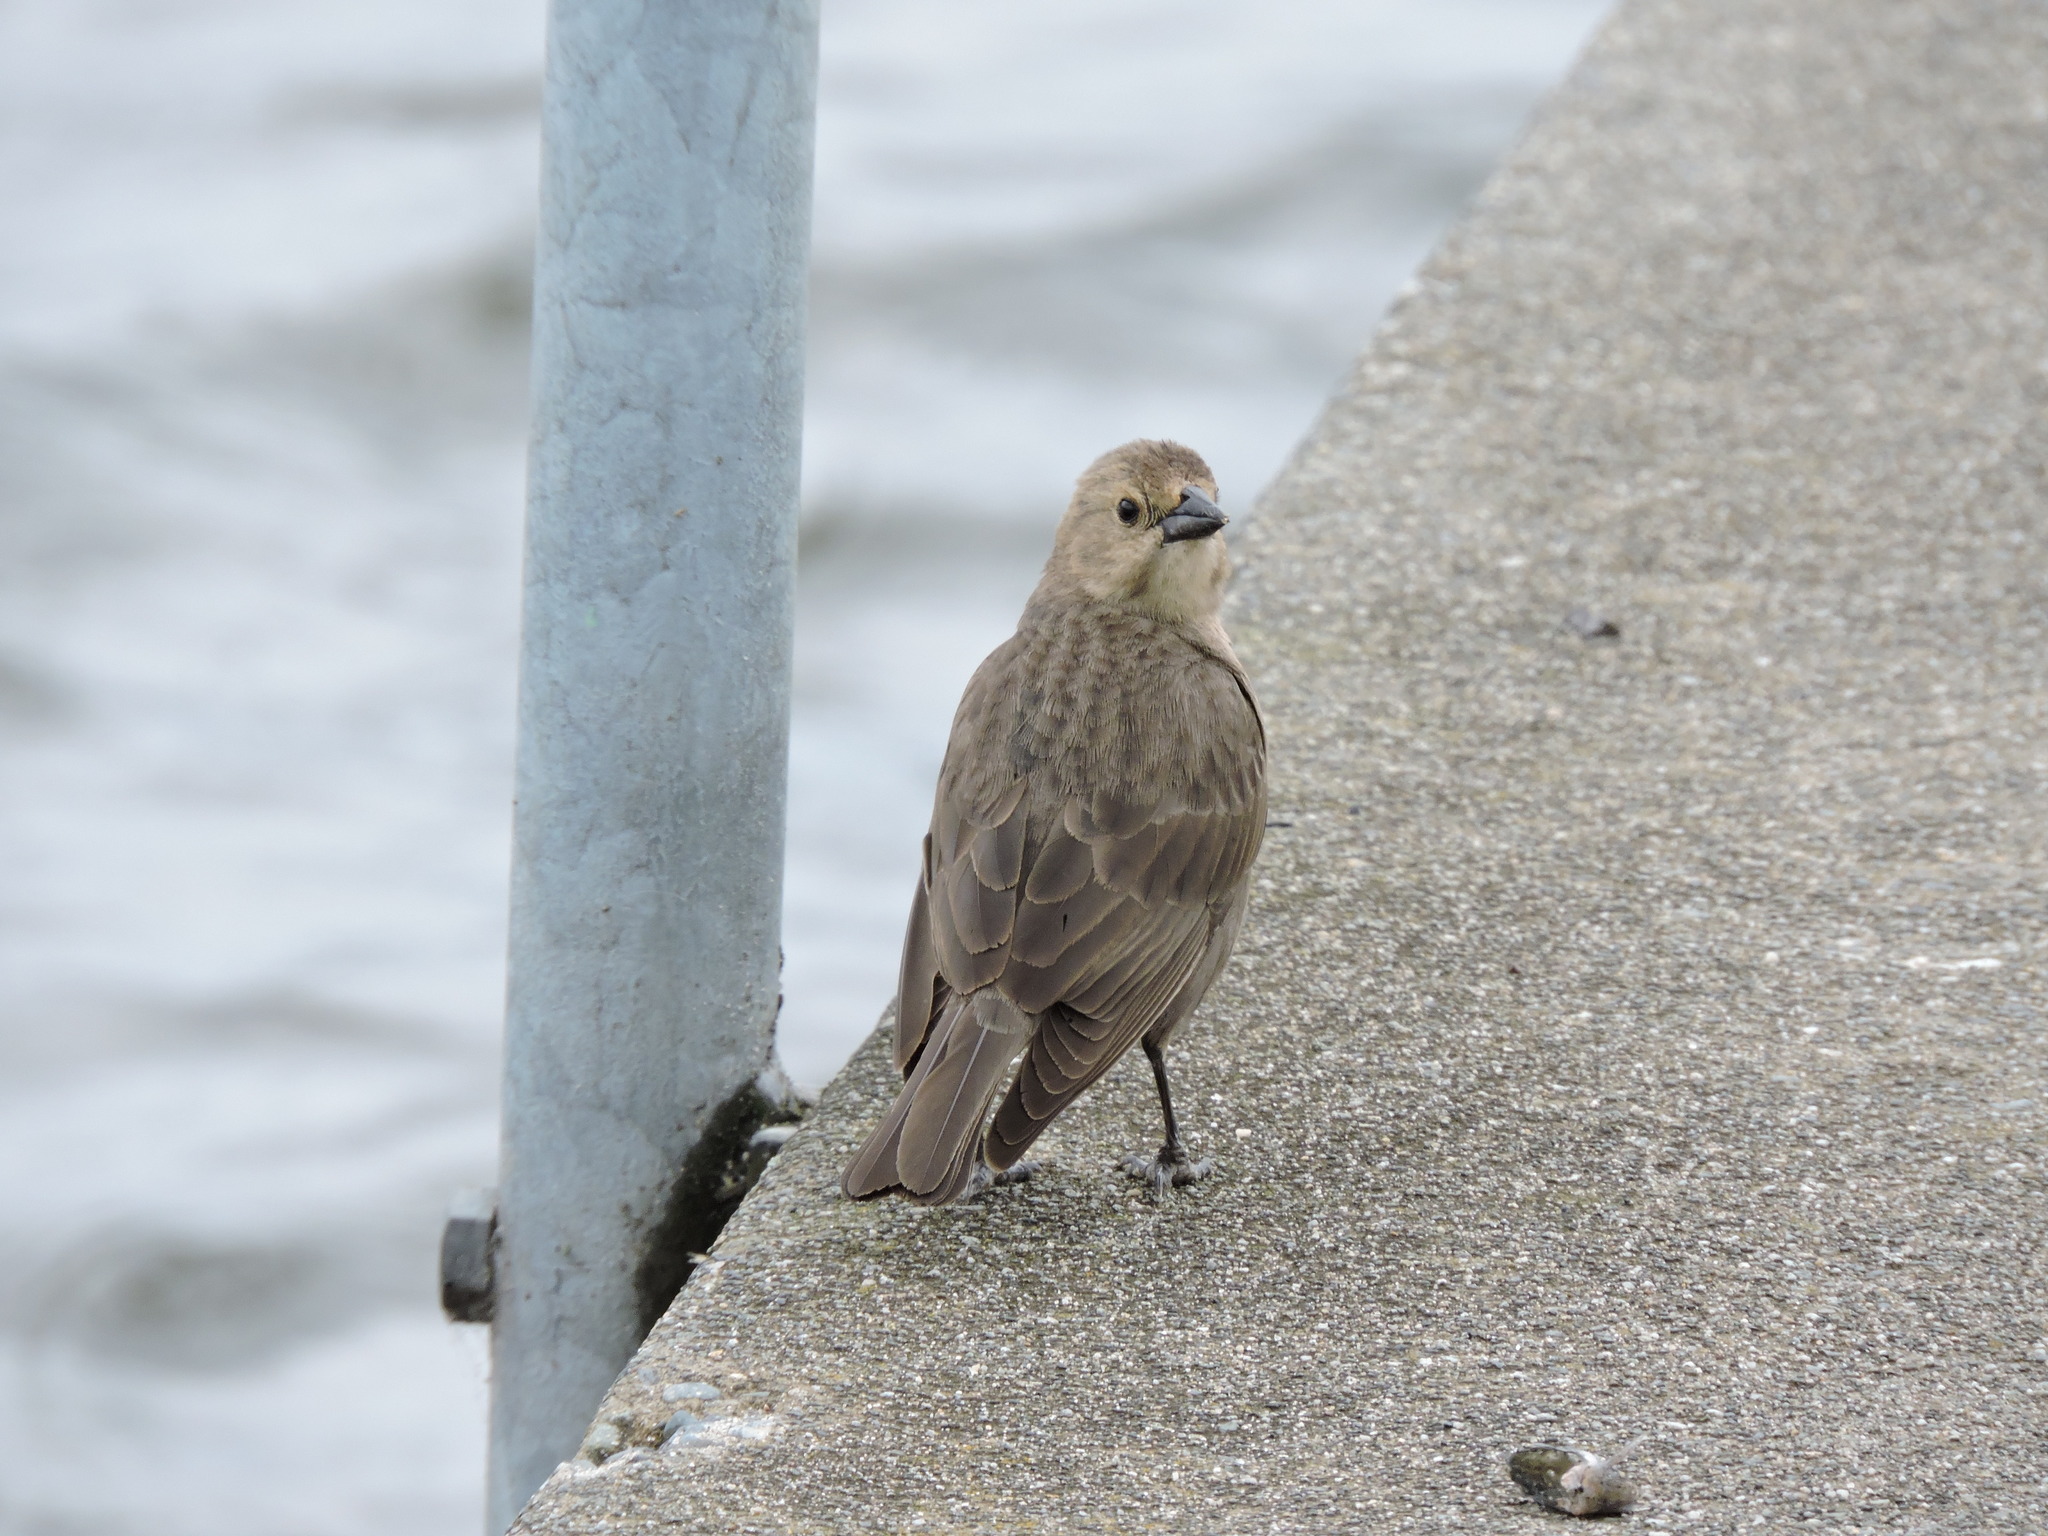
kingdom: Animalia
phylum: Chordata
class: Aves
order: Passeriformes
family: Icteridae
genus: Molothrus
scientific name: Molothrus ater
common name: Brown-headed cowbird
